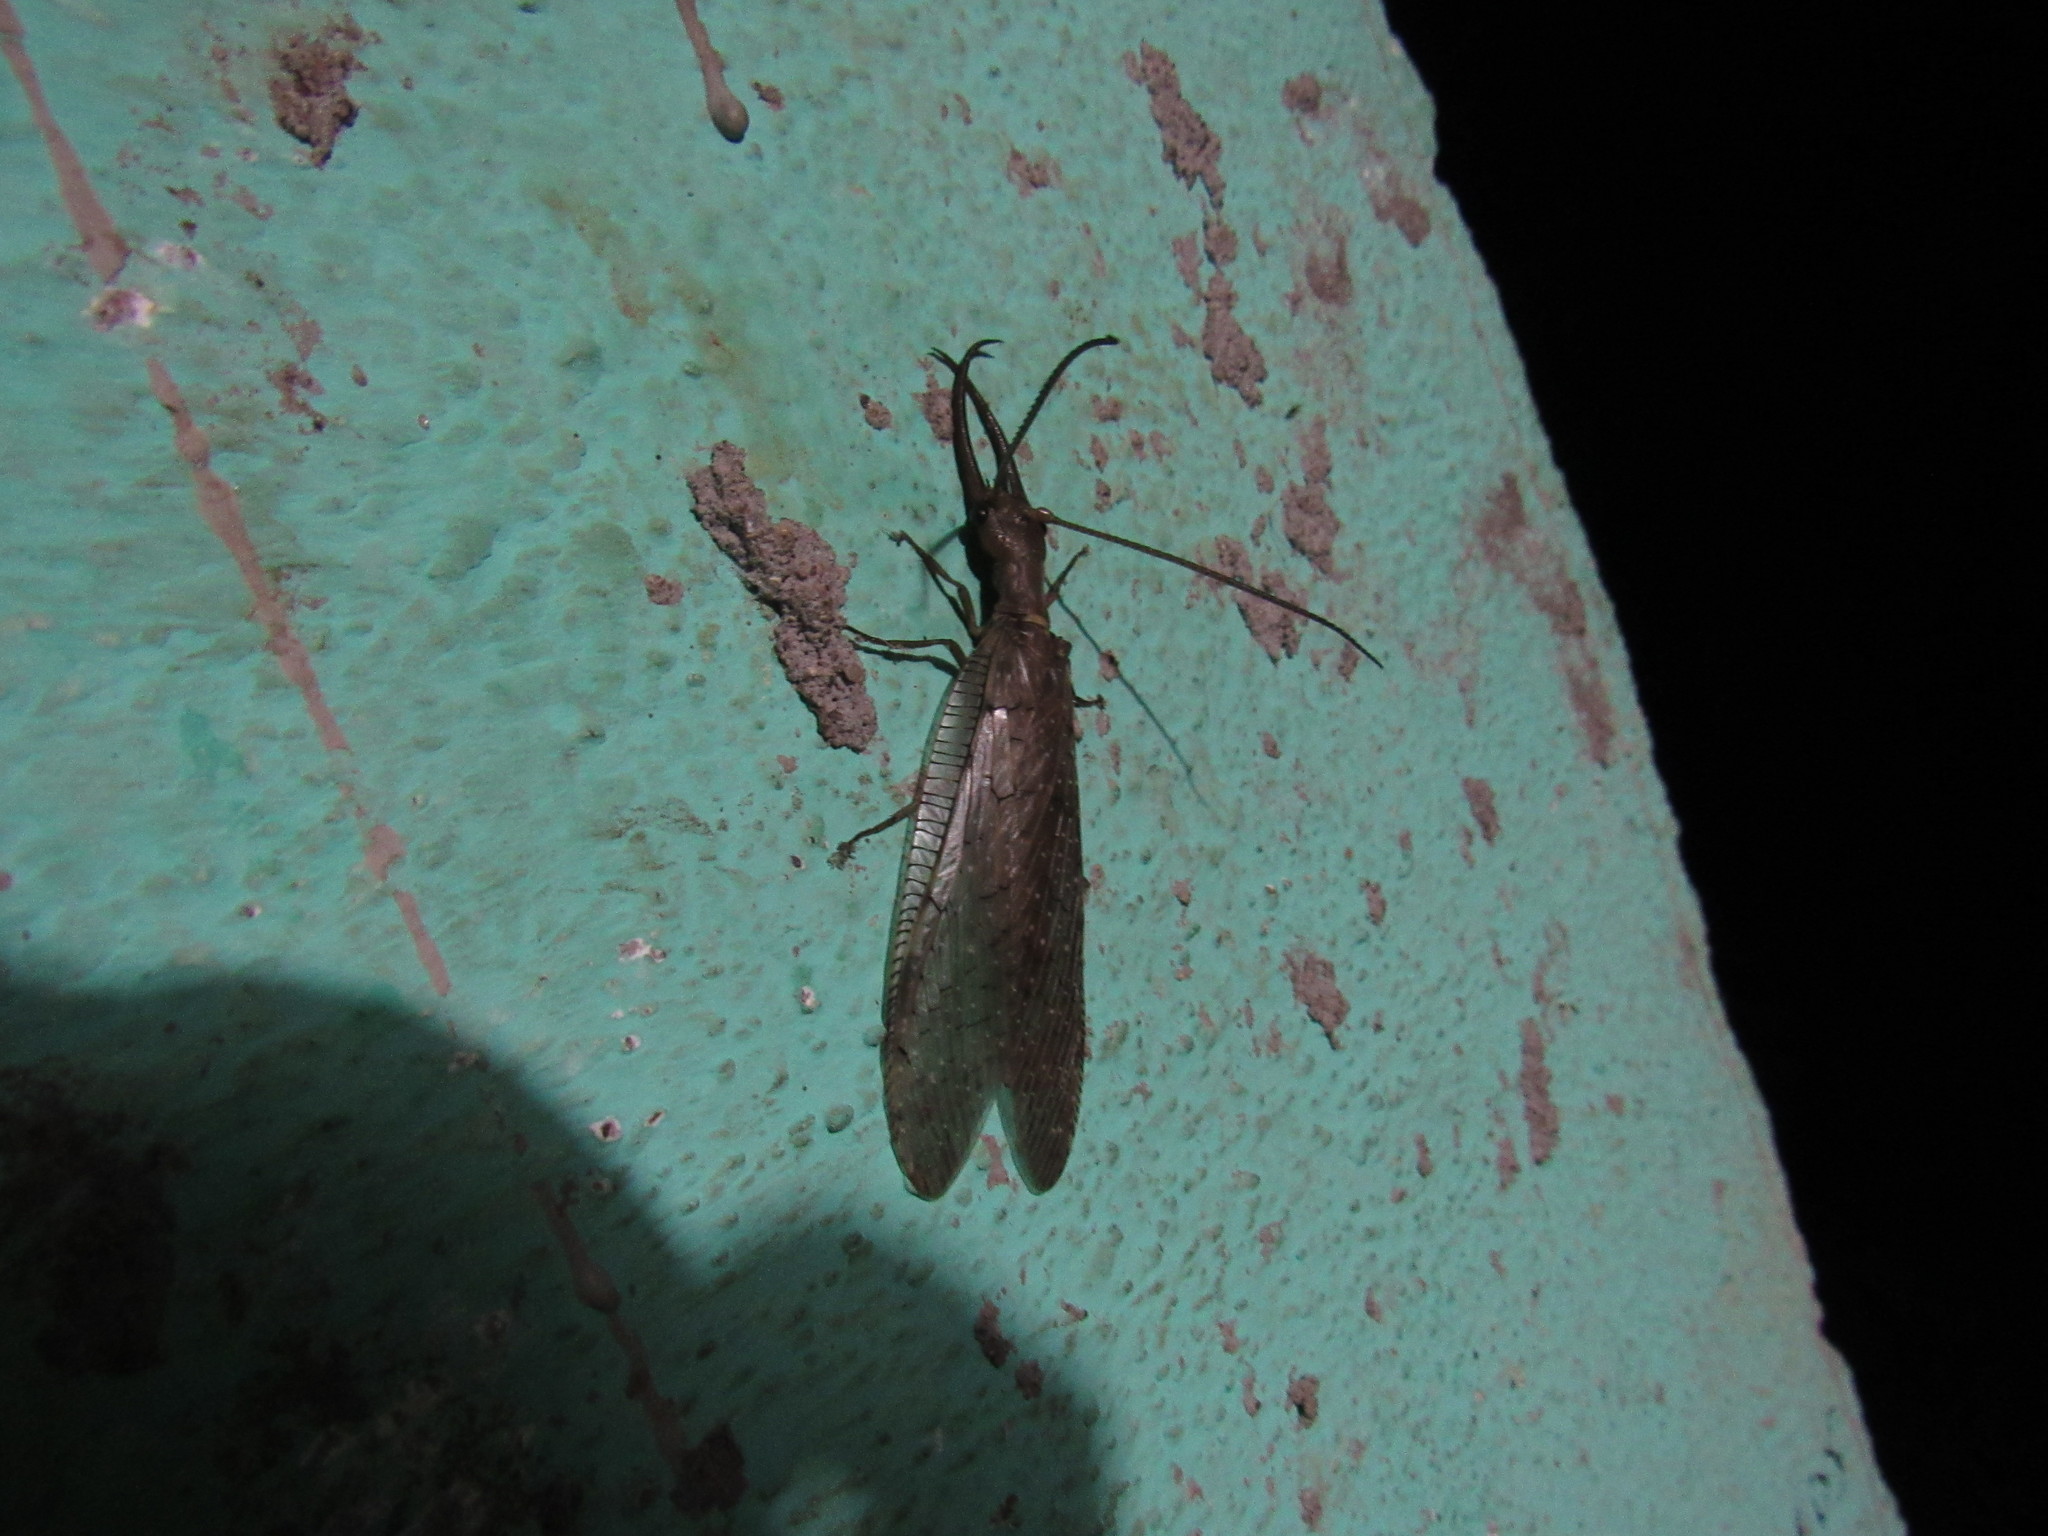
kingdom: Animalia
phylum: Arthropoda
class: Insecta
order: Megaloptera
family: Corydalidae
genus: Corydalus
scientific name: Corydalus luteus
